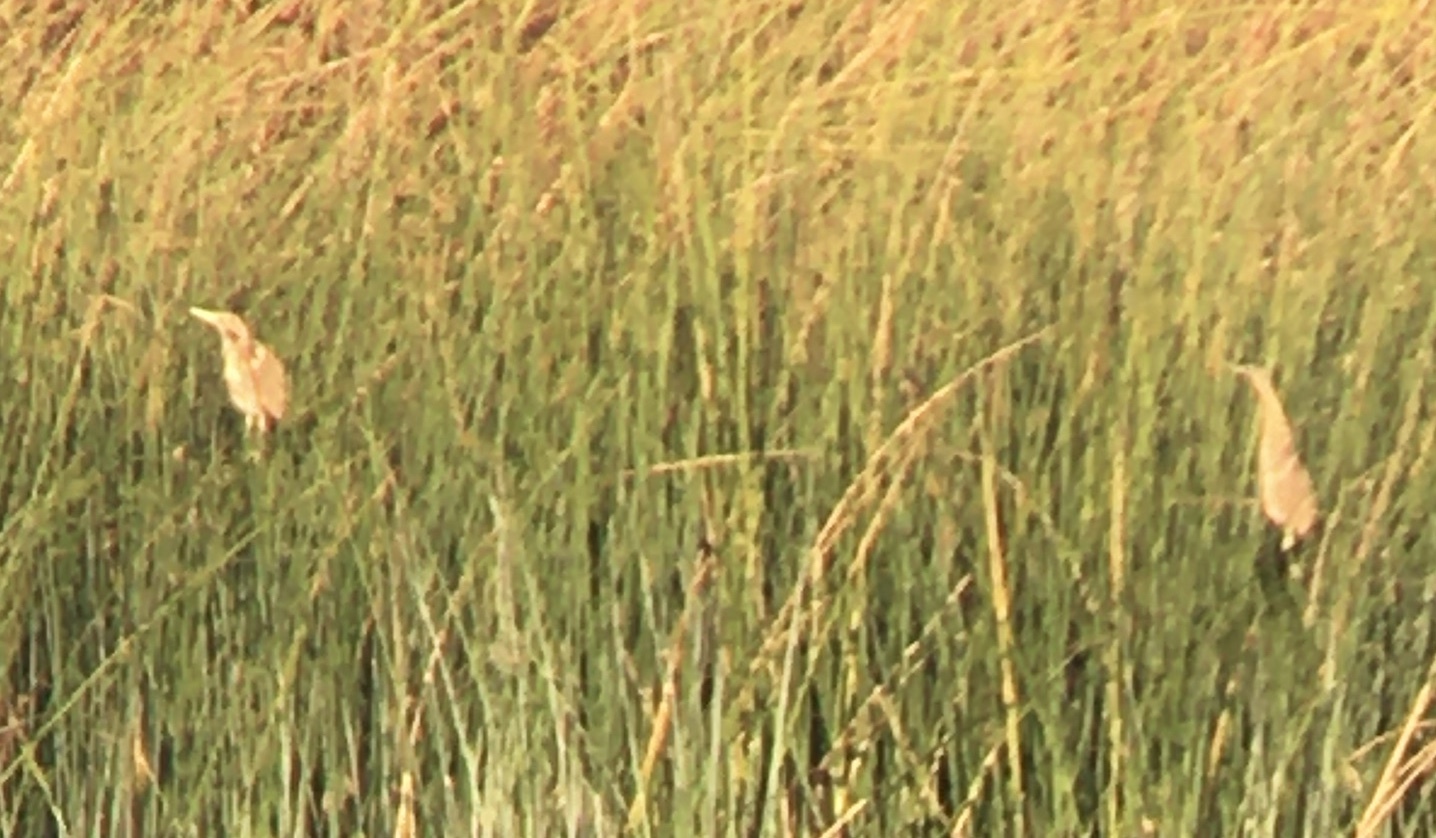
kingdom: Animalia
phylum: Chordata
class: Aves
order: Pelecaniformes
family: Ardeidae
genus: Botaurus
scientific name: Botaurus lentiginosus
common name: American bittern
